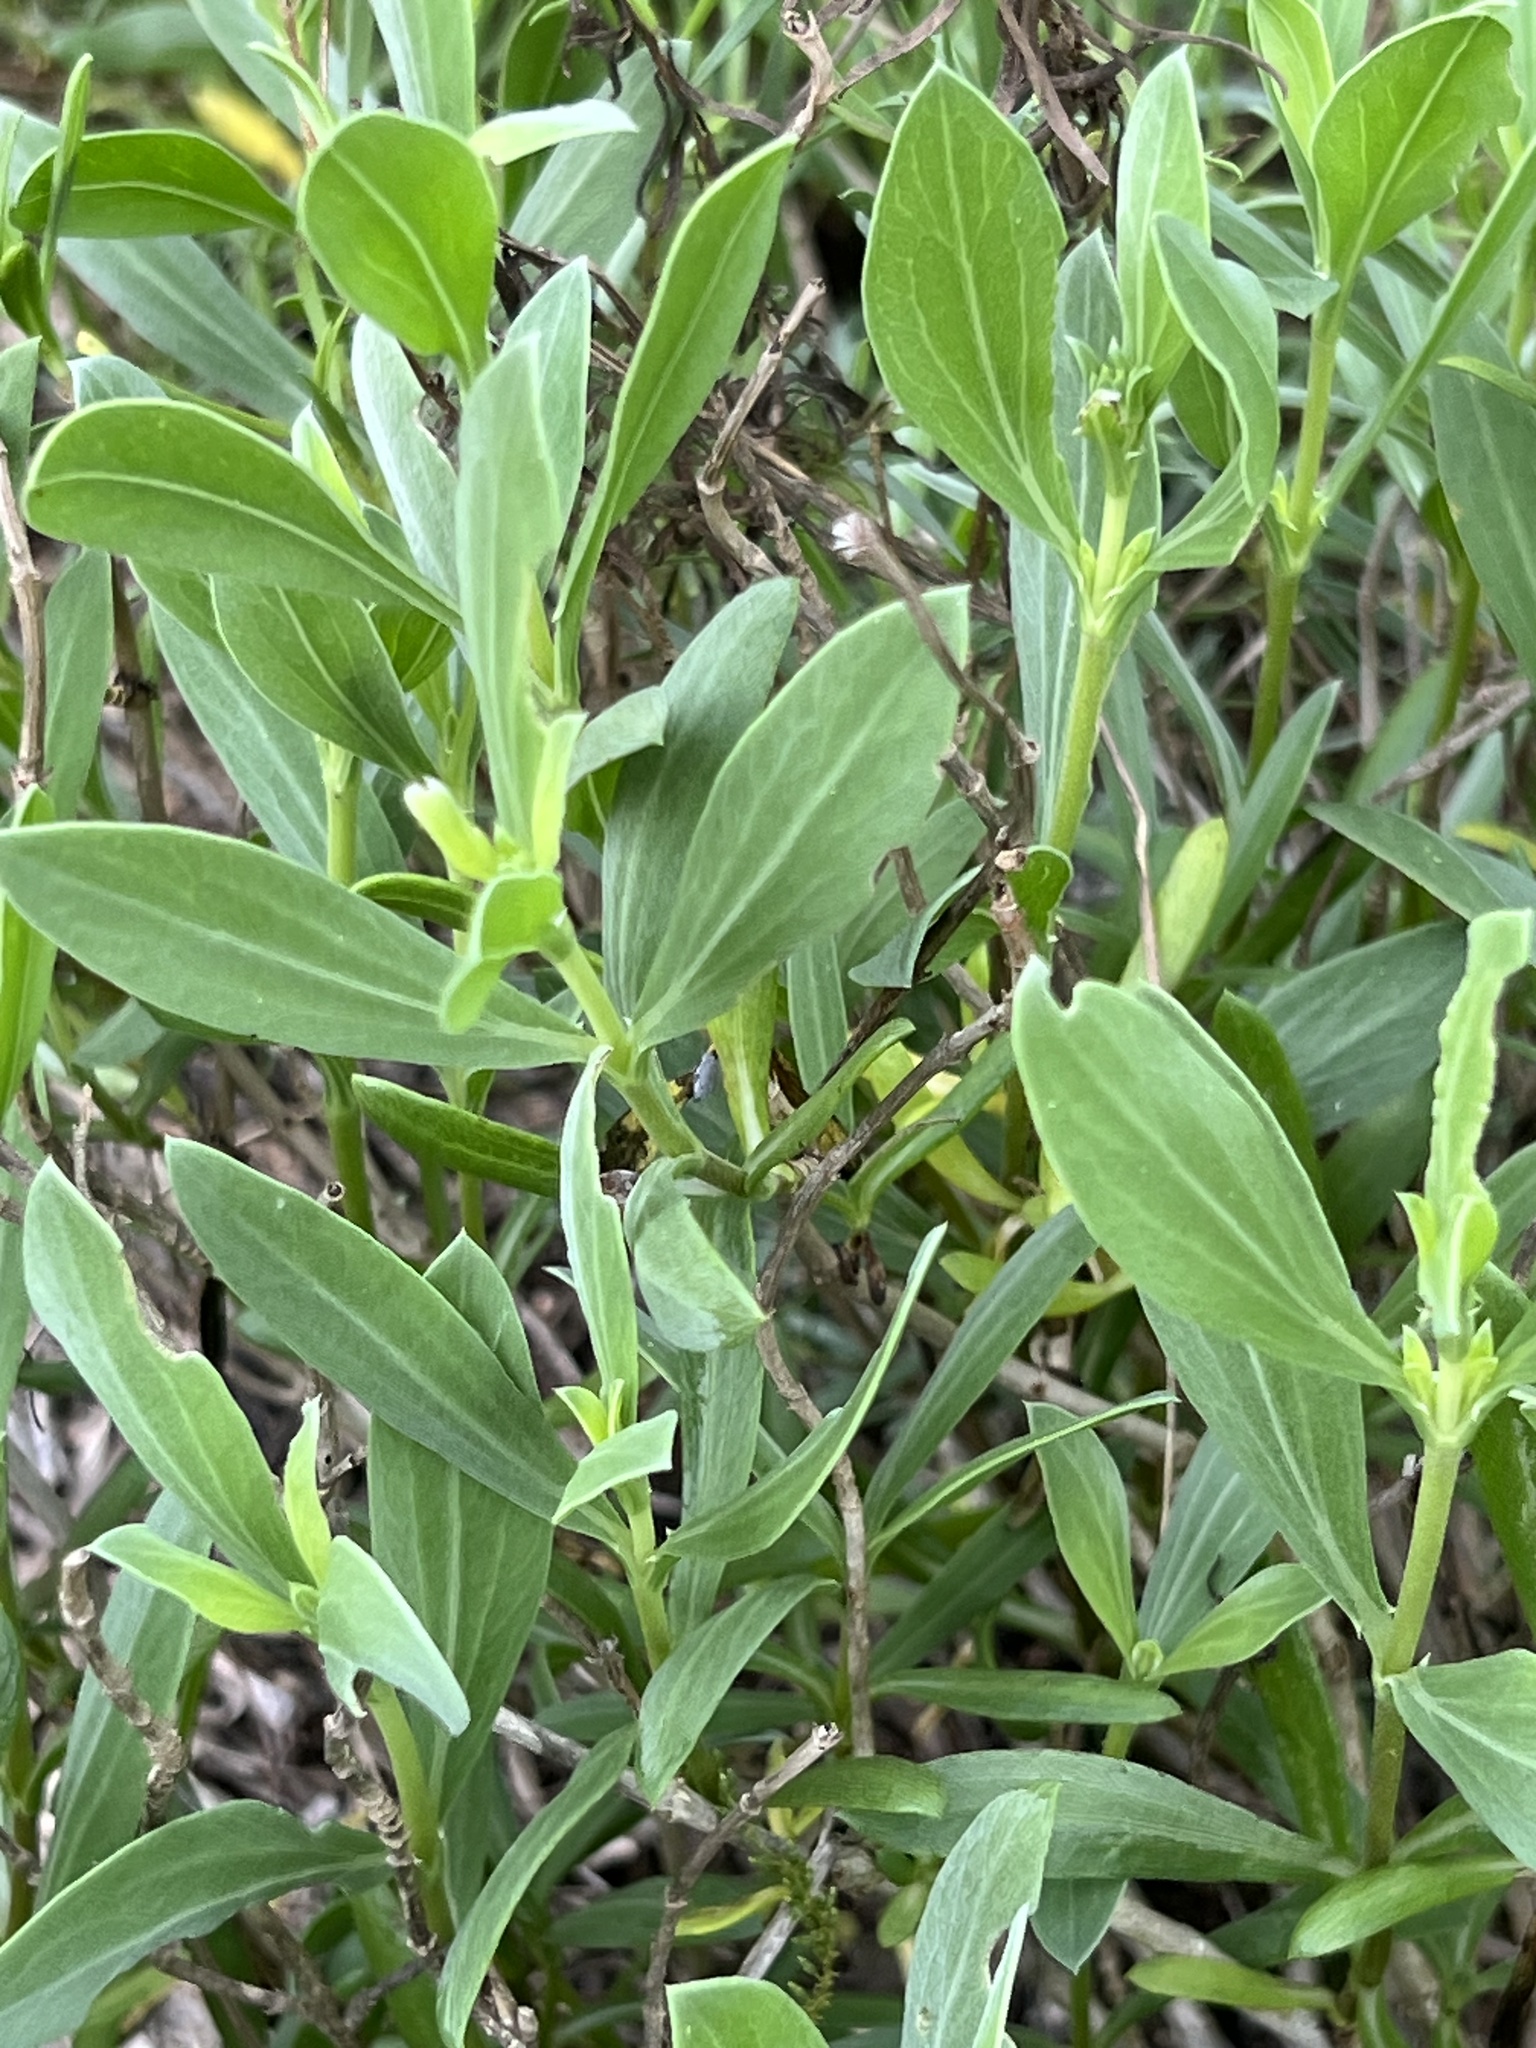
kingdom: Plantae
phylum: Tracheophyta
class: Magnoliopsida
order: Asterales
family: Asteraceae
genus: Borrichia
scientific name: Borrichia frutescens
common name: Sea oxeye
